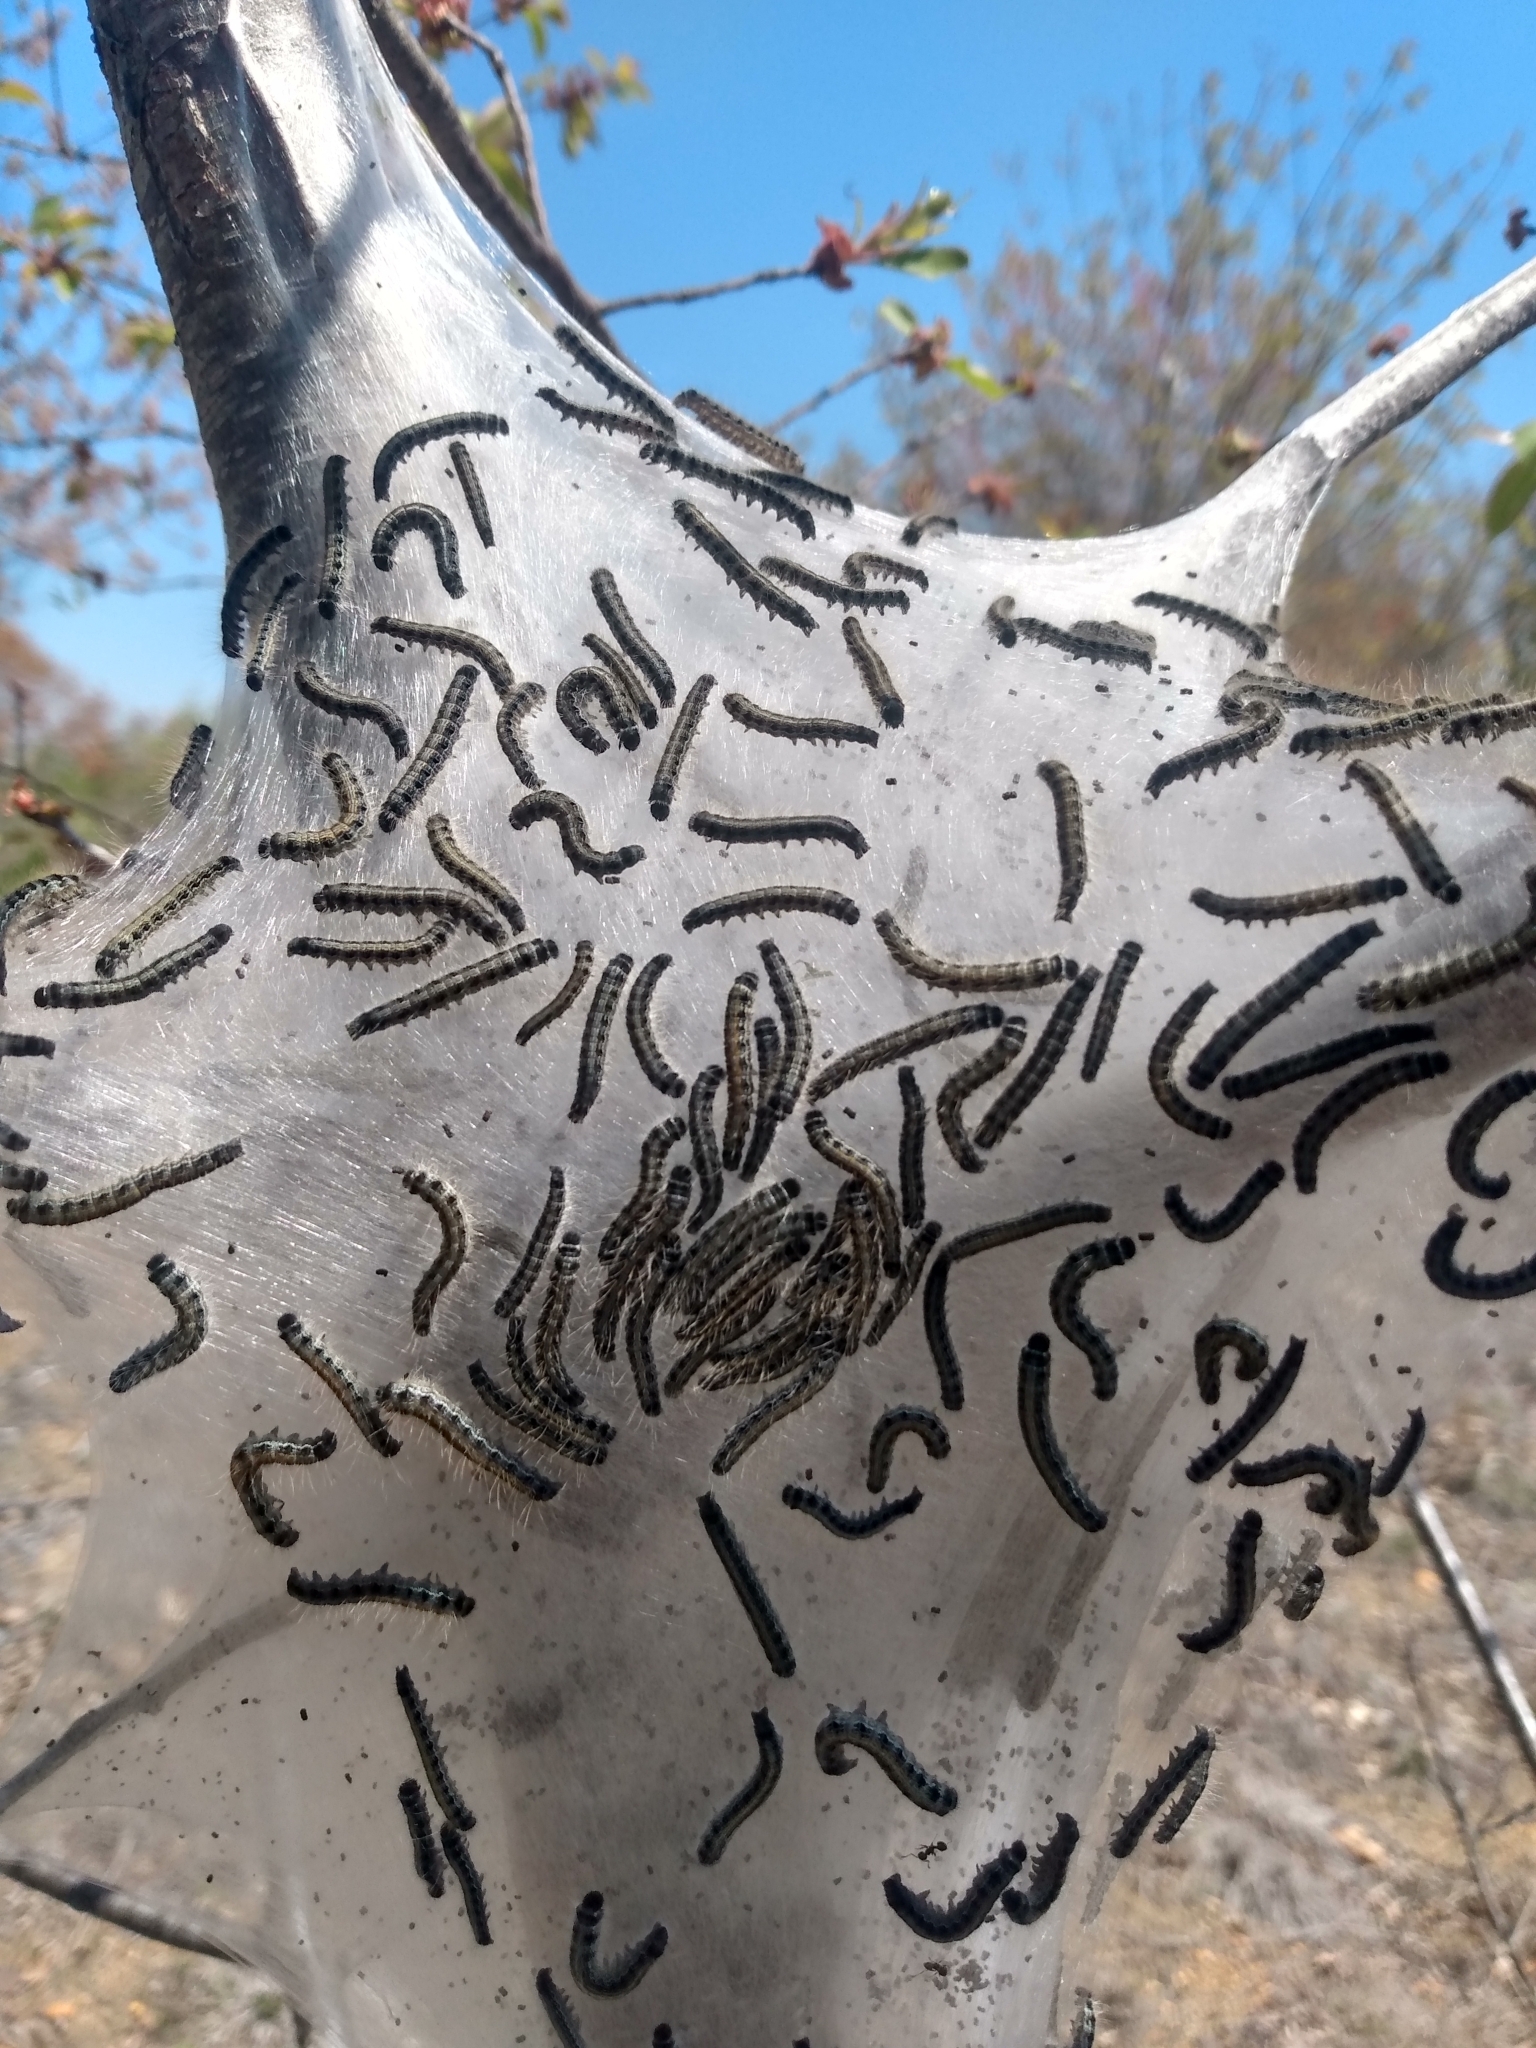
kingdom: Animalia
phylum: Arthropoda
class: Insecta
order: Lepidoptera
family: Lasiocampidae
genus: Malacosoma
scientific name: Malacosoma americana
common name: Eastern tent caterpillar moth
